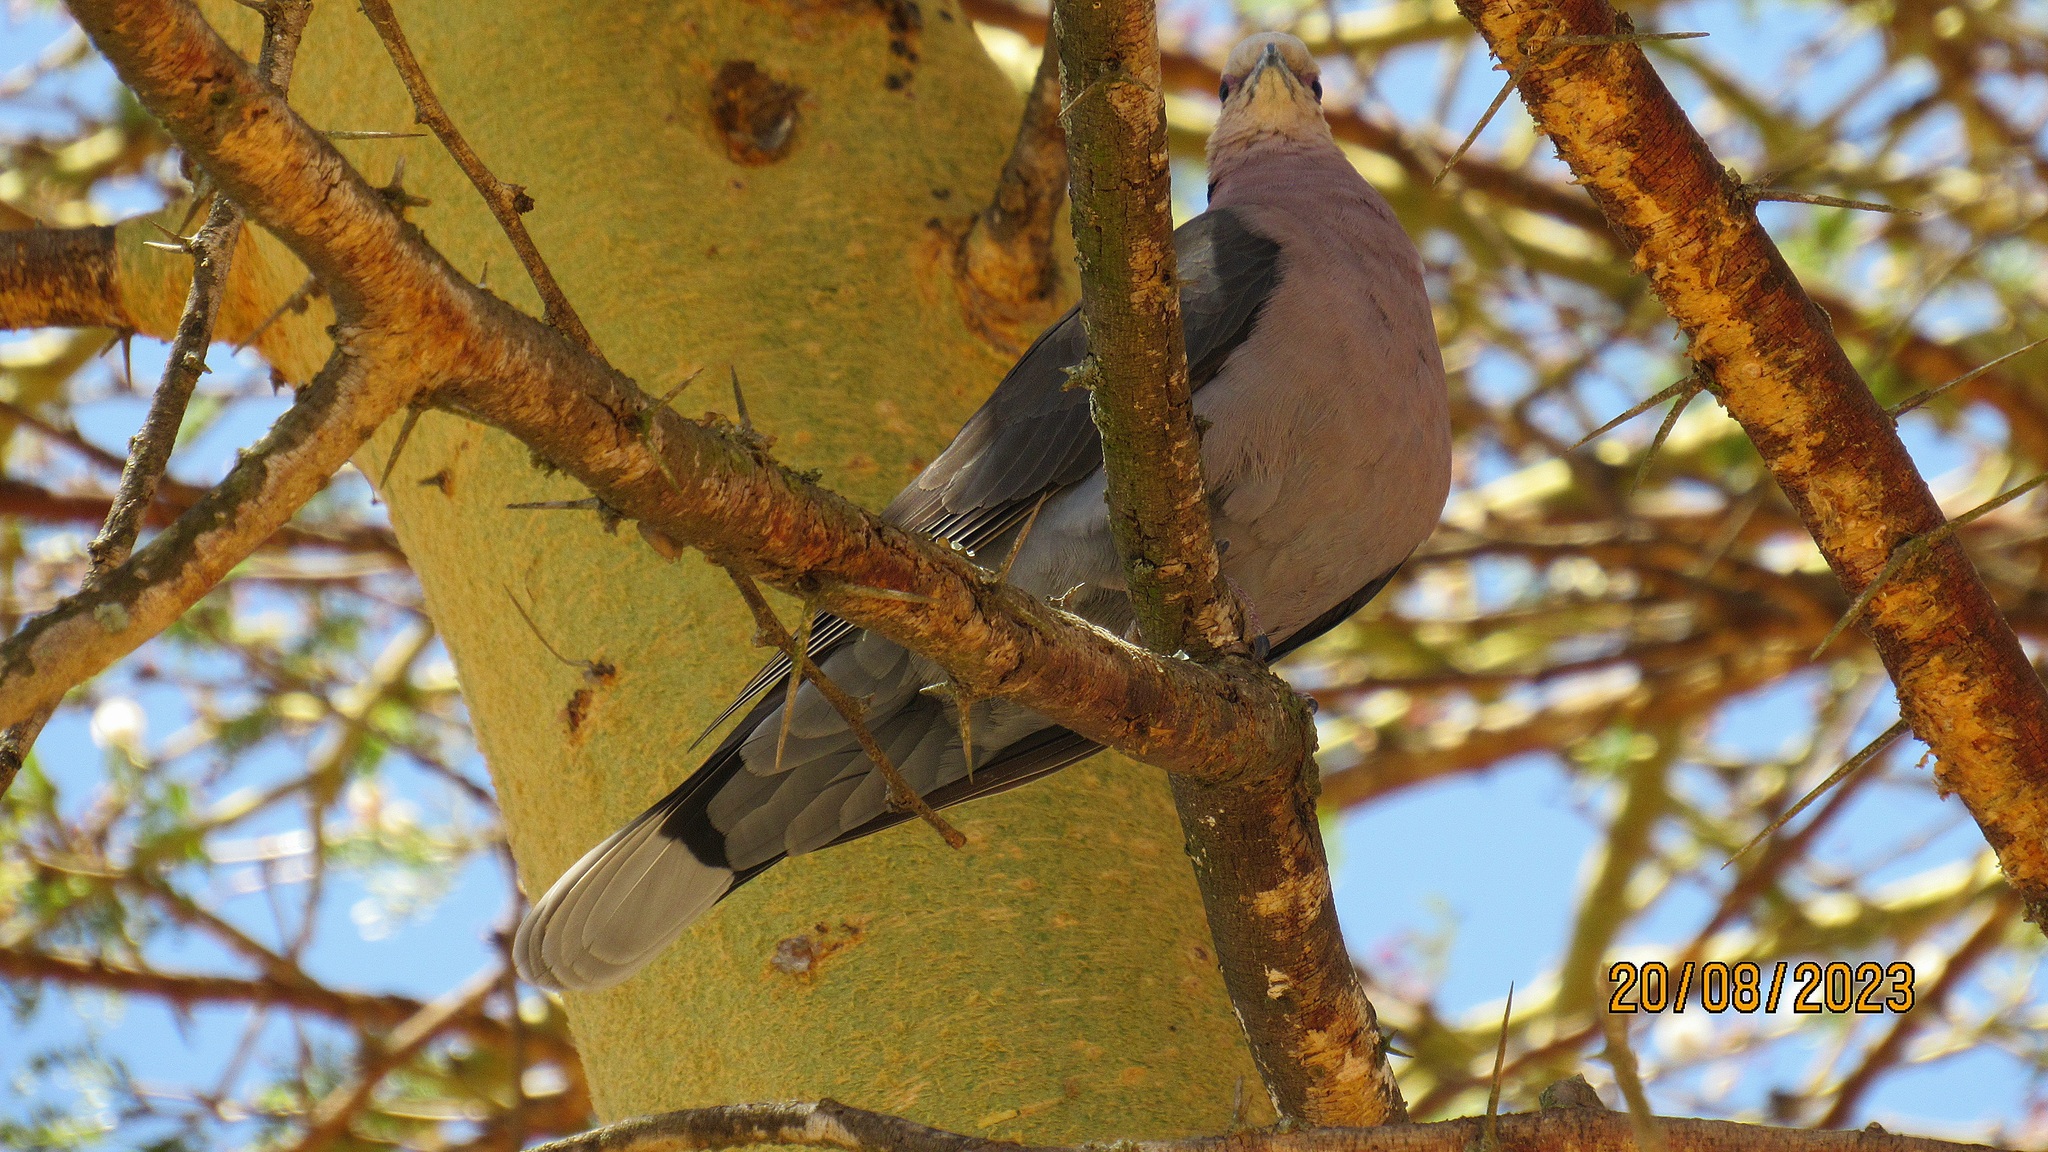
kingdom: Animalia
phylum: Chordata
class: Aves
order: Columbiformes
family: Columbidae
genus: Streptopelia
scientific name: Streptopelia semitorquata
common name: Red-eyed dove
